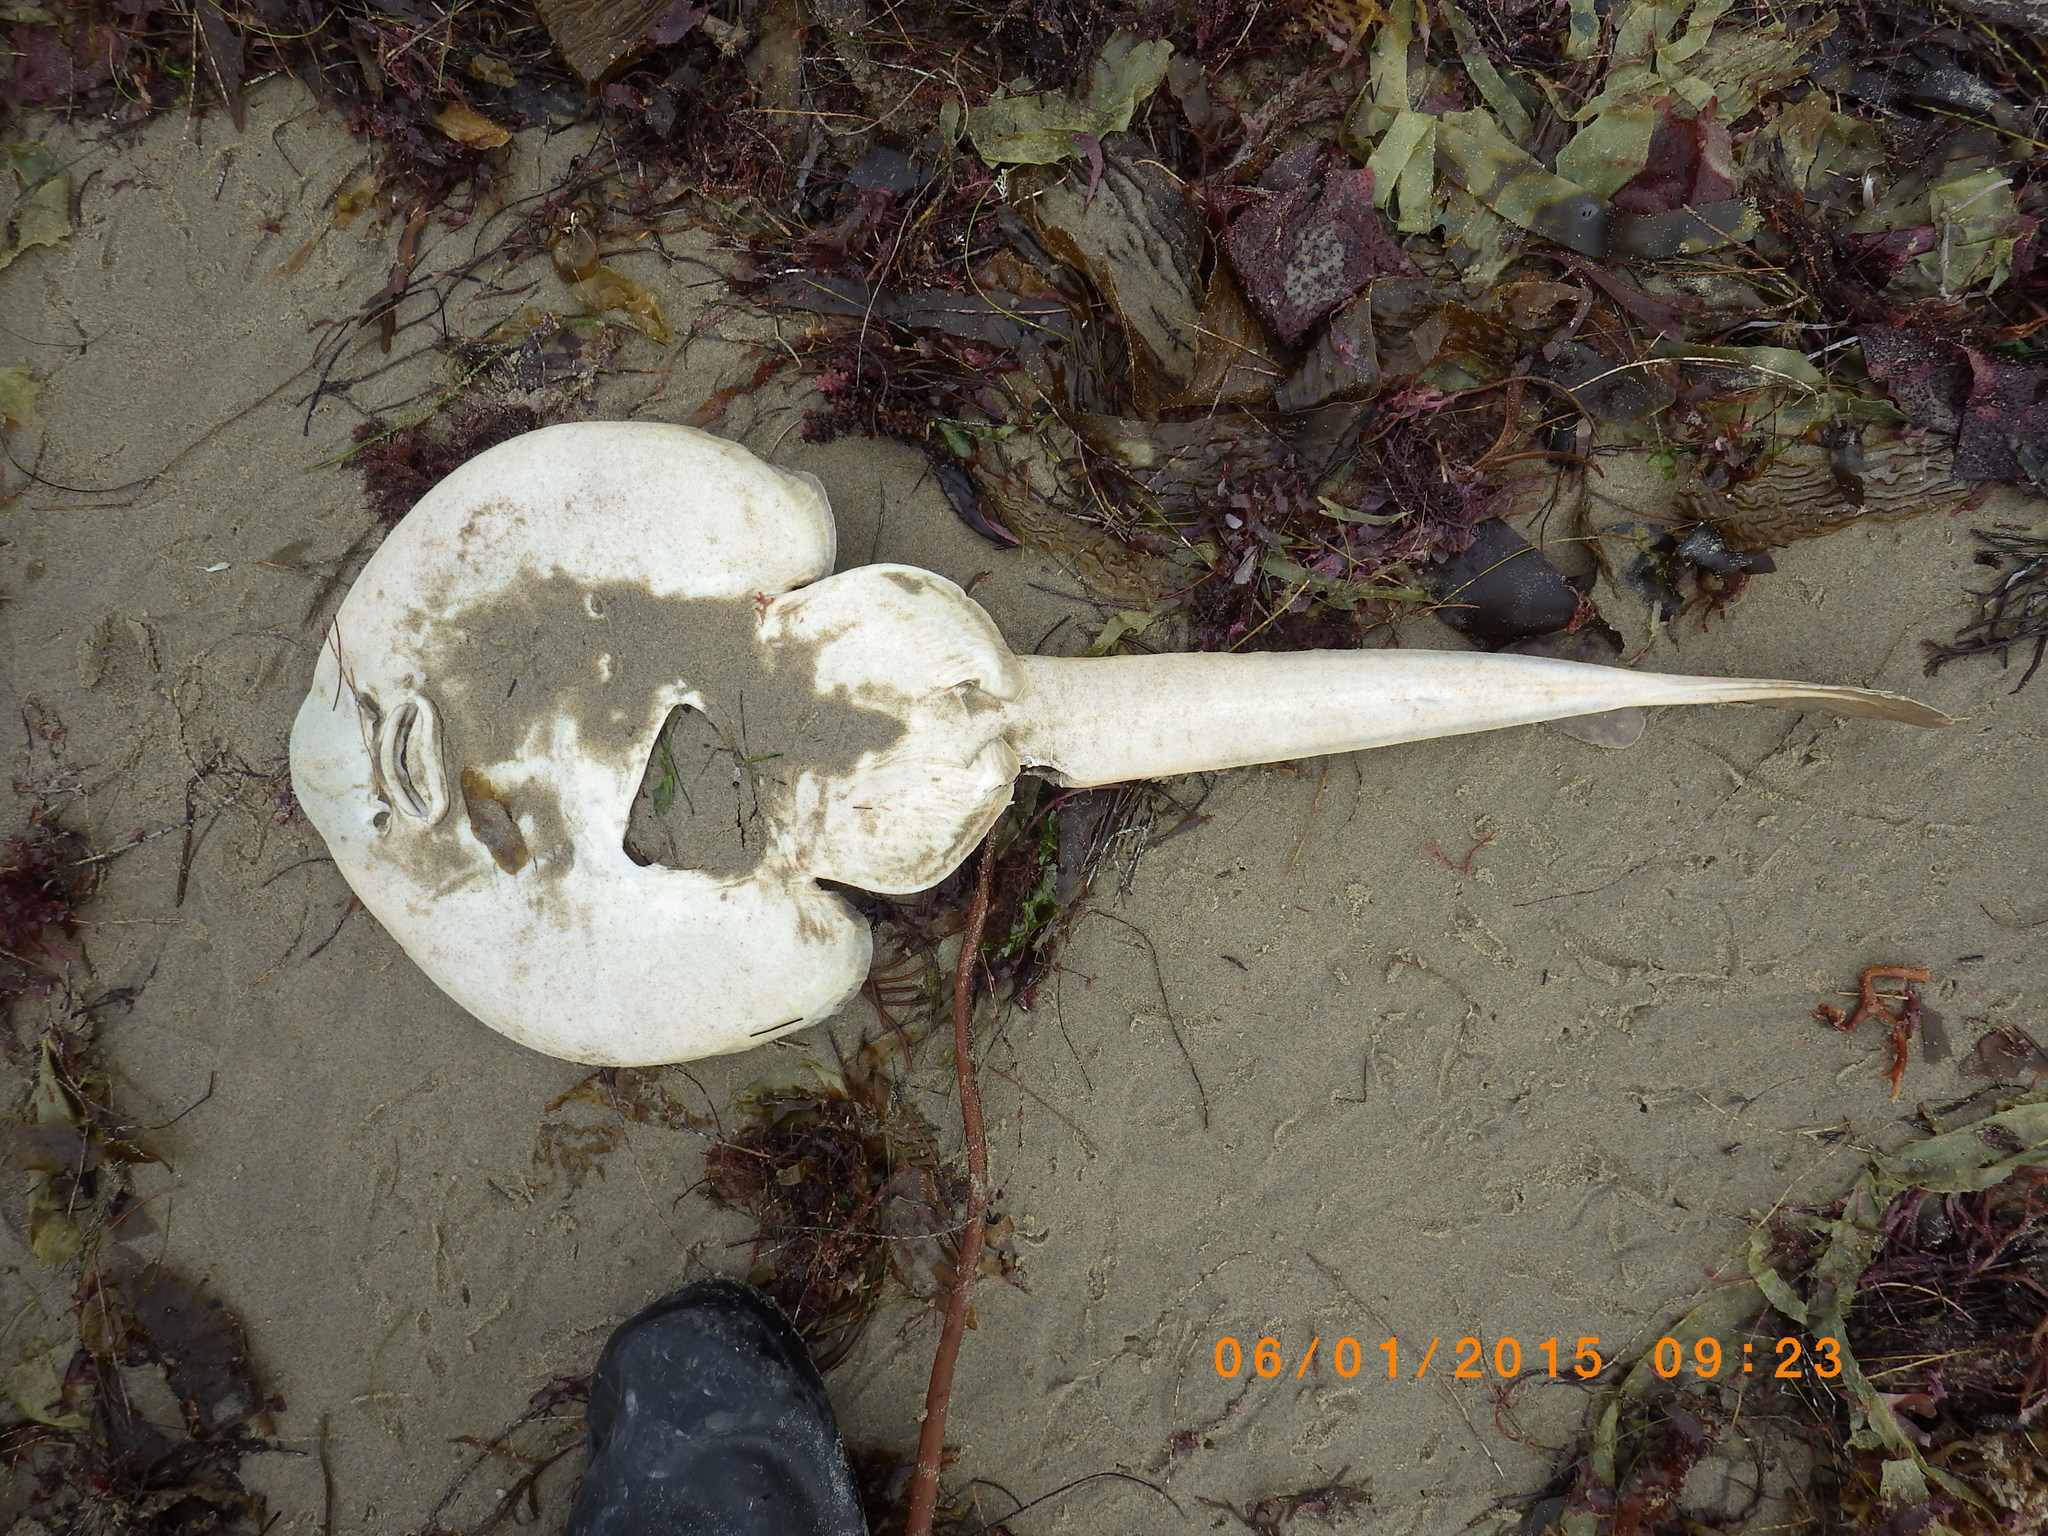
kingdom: Animalia
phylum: Chordata
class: Elasmobranchii
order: Rhinopristiformes
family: Rhinobatidae
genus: Platyrhinoidis
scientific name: Platyrhinoidis triseriata
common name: Thornback
